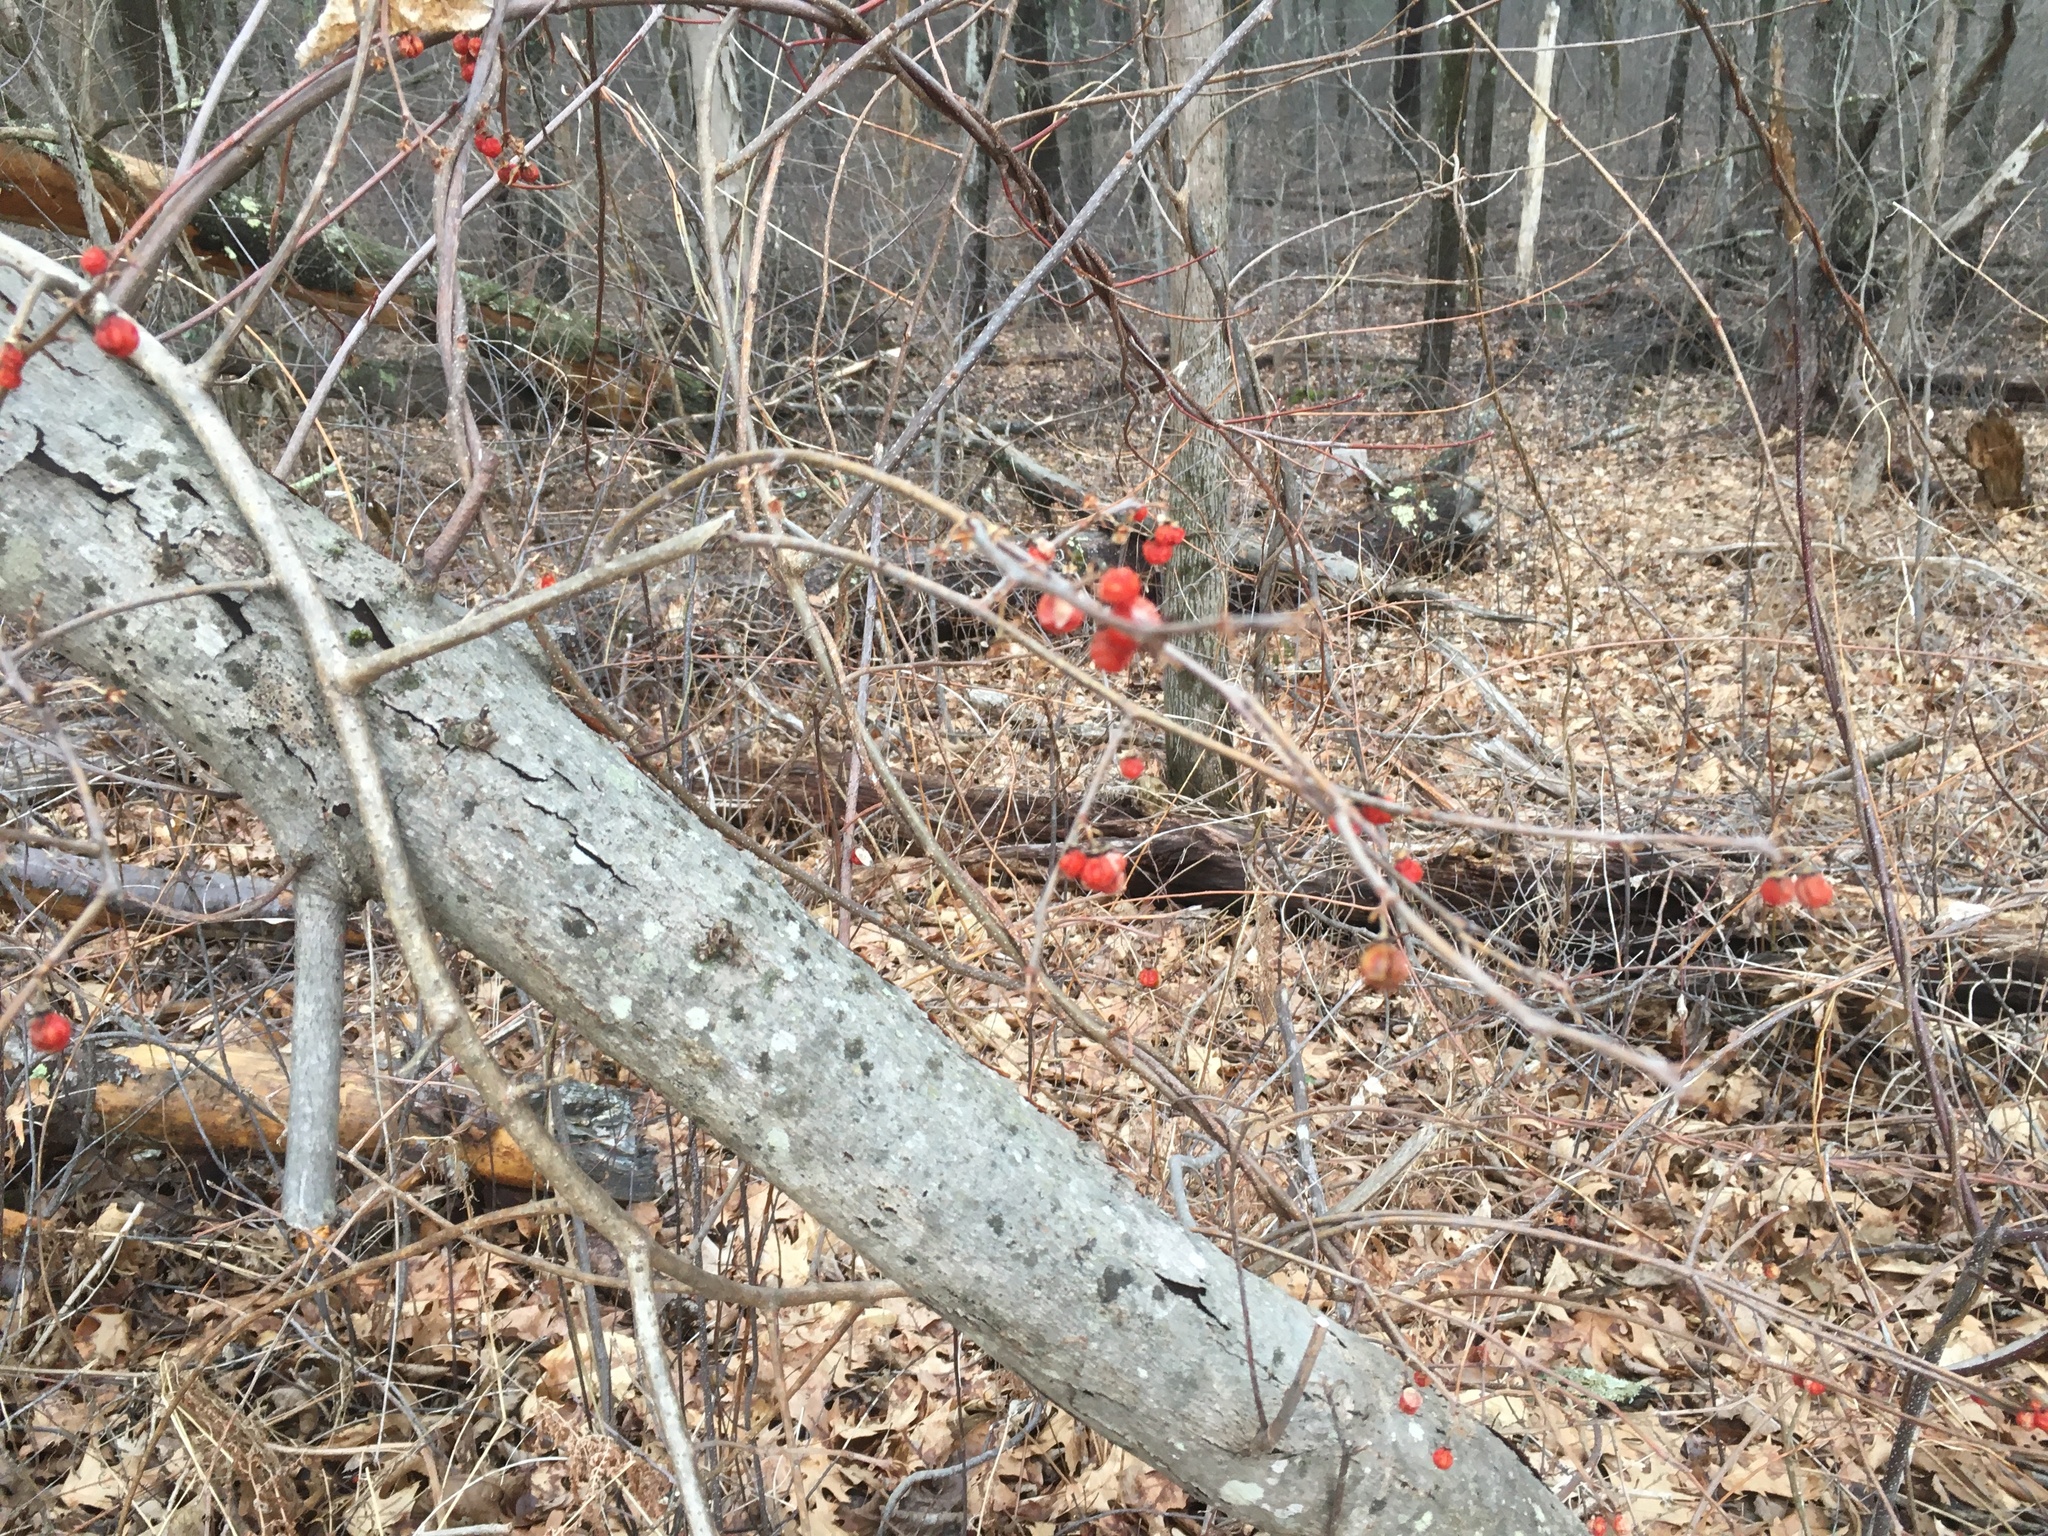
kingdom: Plantae
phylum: Tracheophyta
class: Magnoliopsida
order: Celastrales
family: Celastraceae
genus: Celastrus
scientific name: Celastrus orbiculatus
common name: Oriental bittersweet
